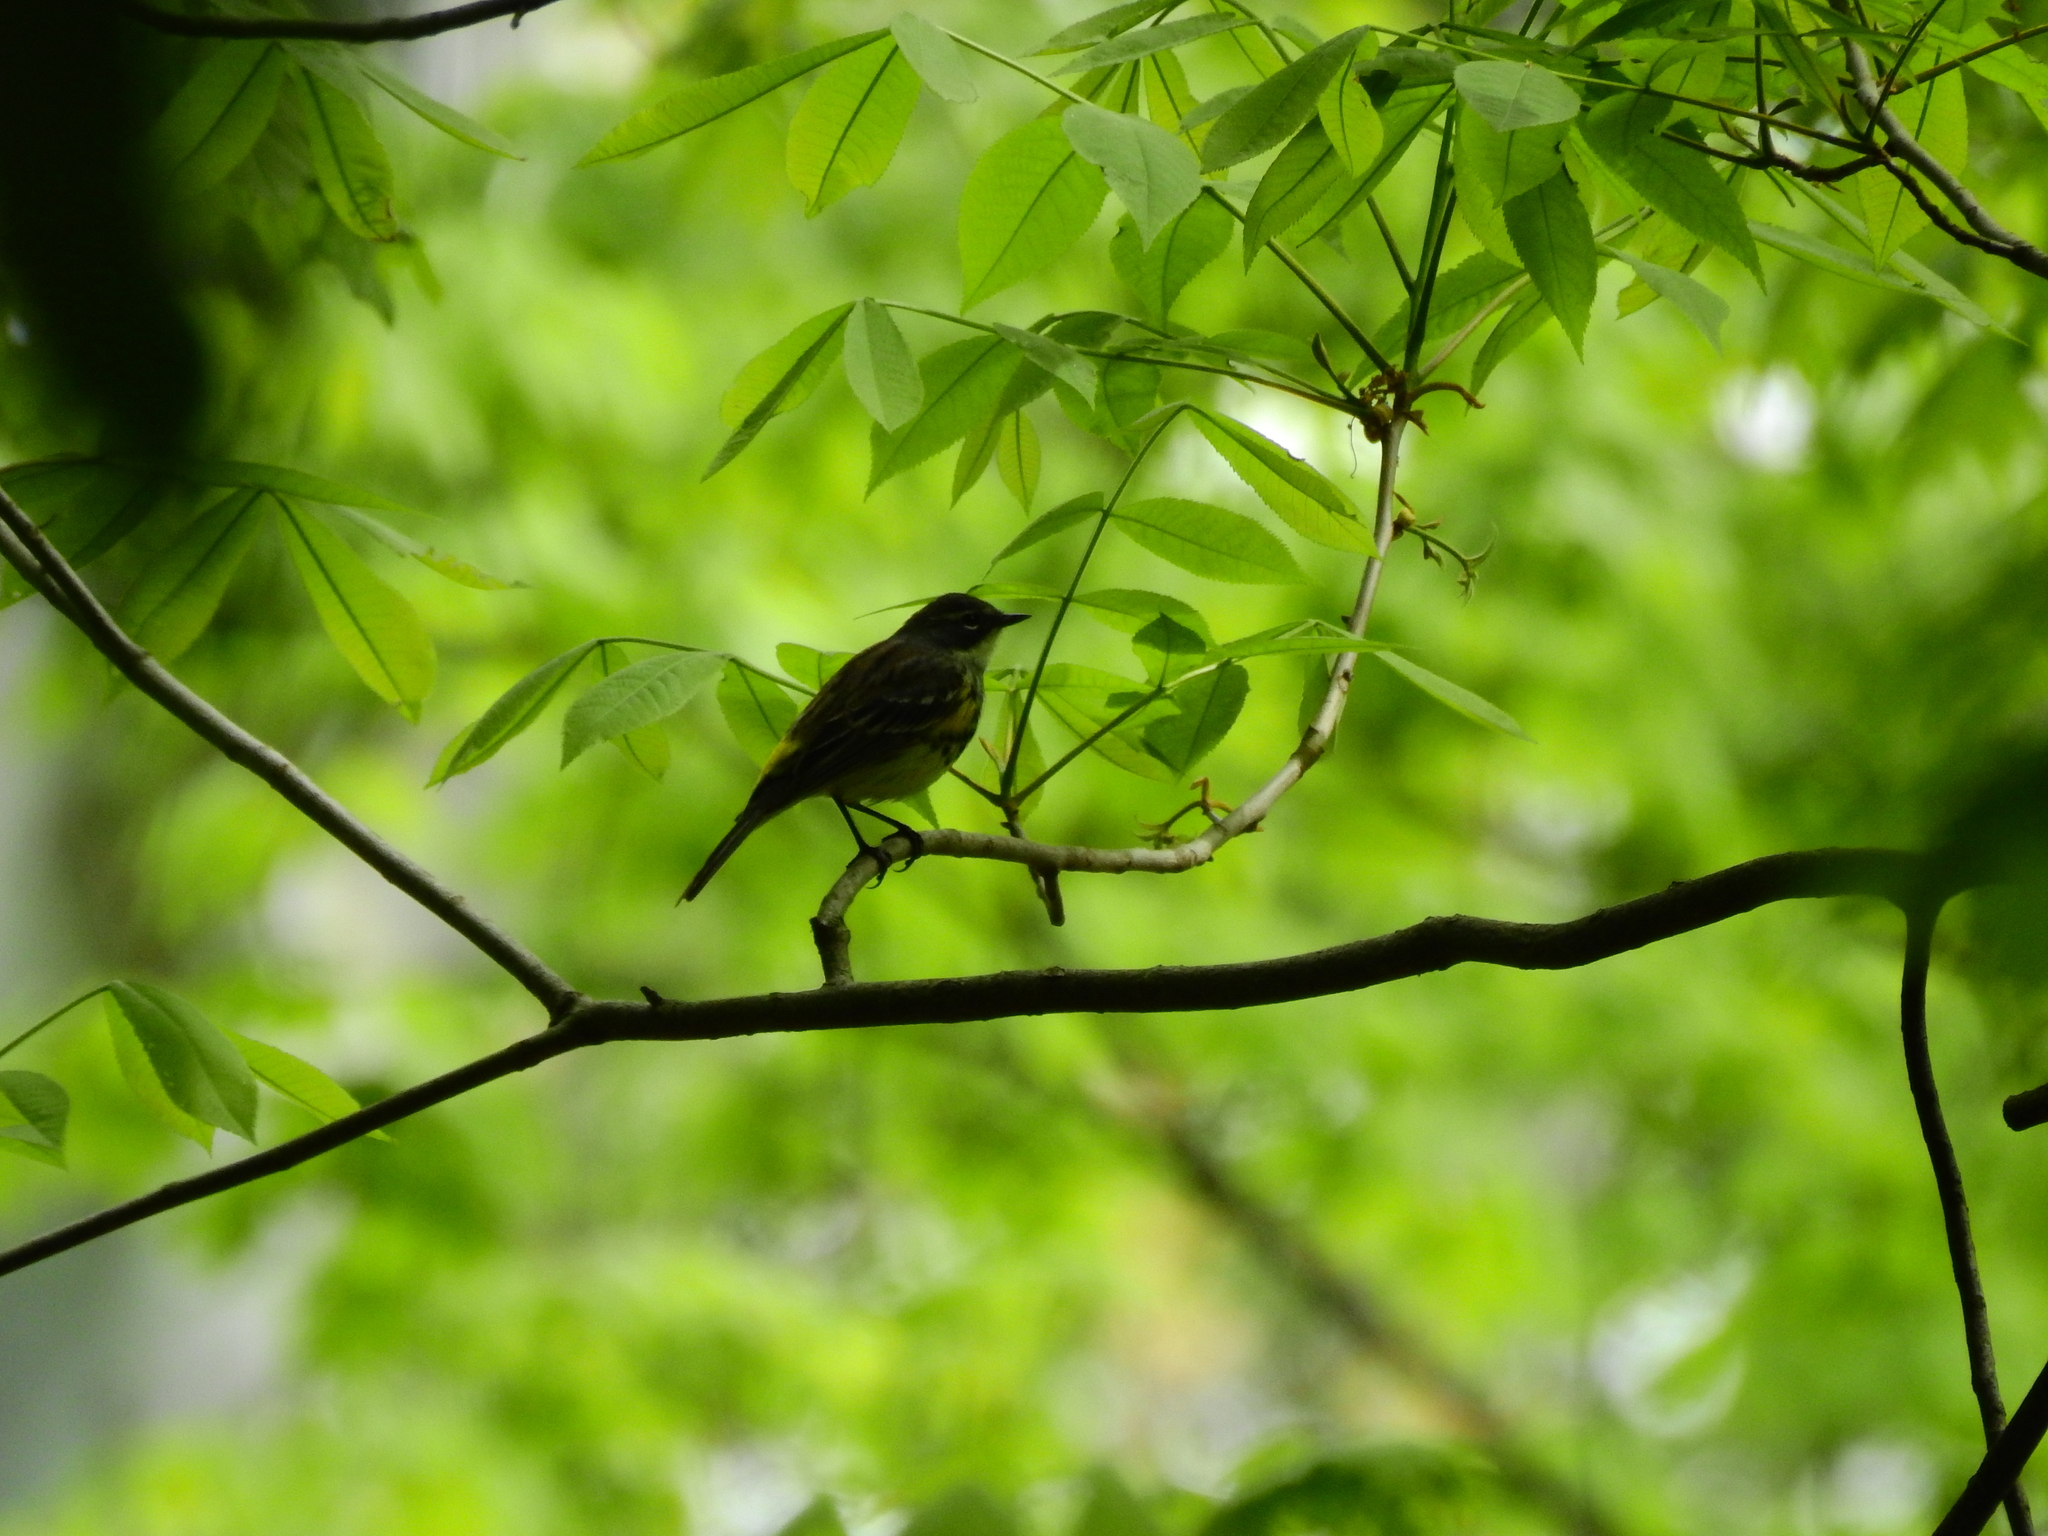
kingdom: Animalia
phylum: Chordata
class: Aves
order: Passeriformes
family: Parulidae
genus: Setophaga
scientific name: Setophaga coronata
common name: Myrtle warbler
